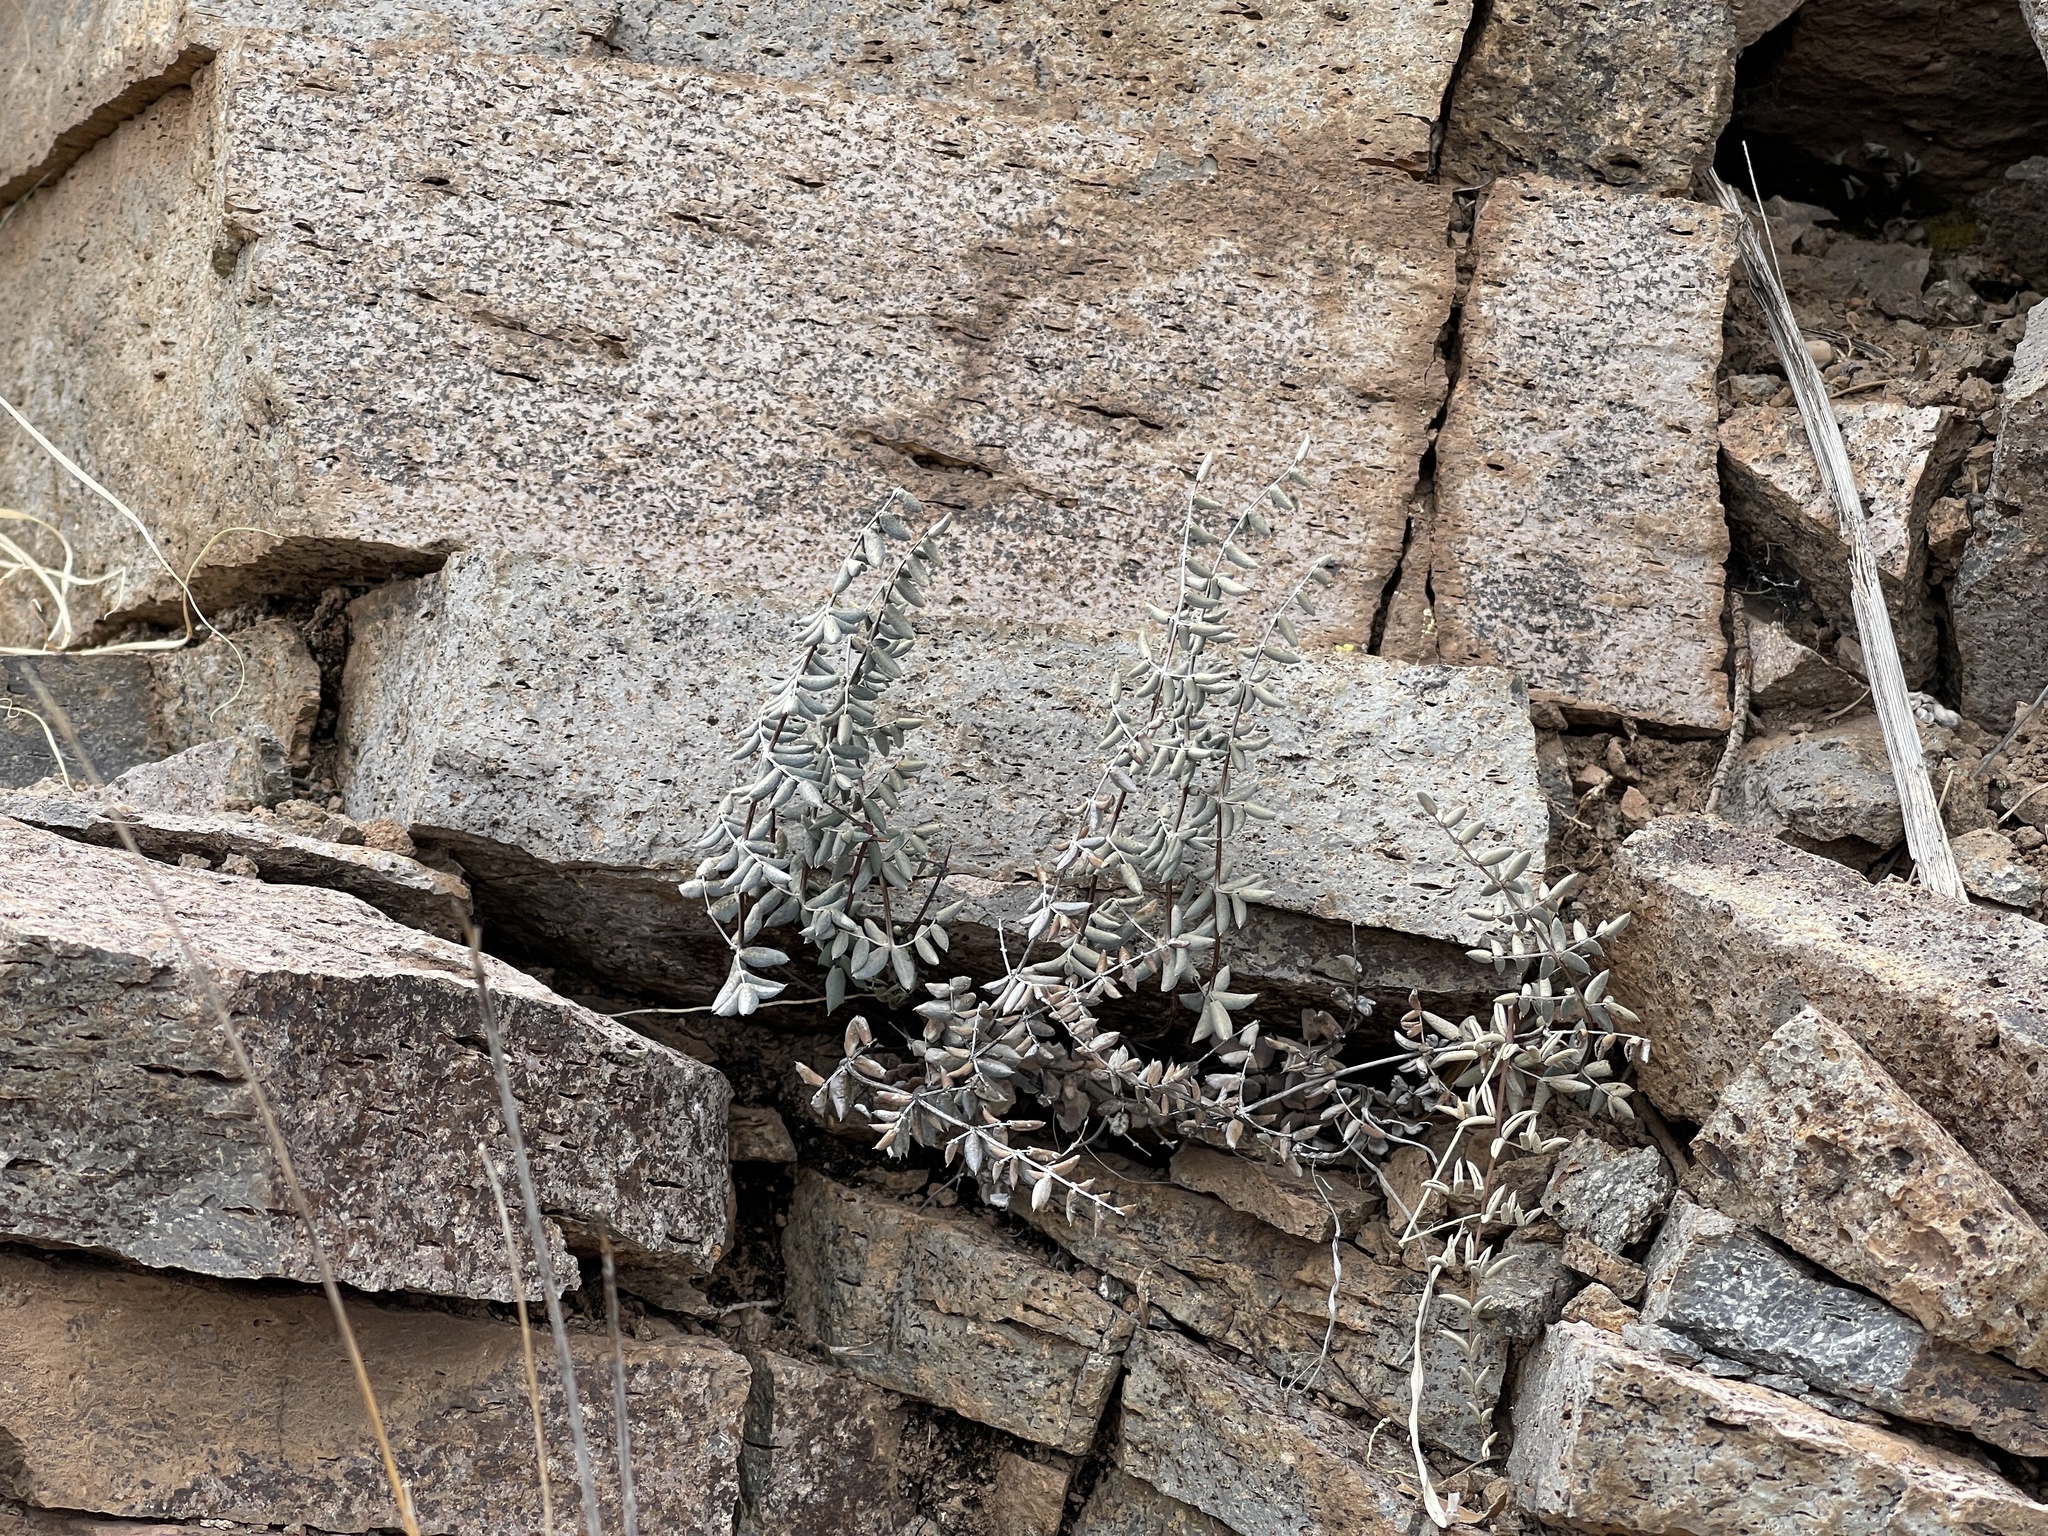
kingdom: Plantae
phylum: Tracheophyta
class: Polypodiopsida
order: Polypodiales
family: Pteridaceae
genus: Pellaea
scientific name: Pellaea truncata
